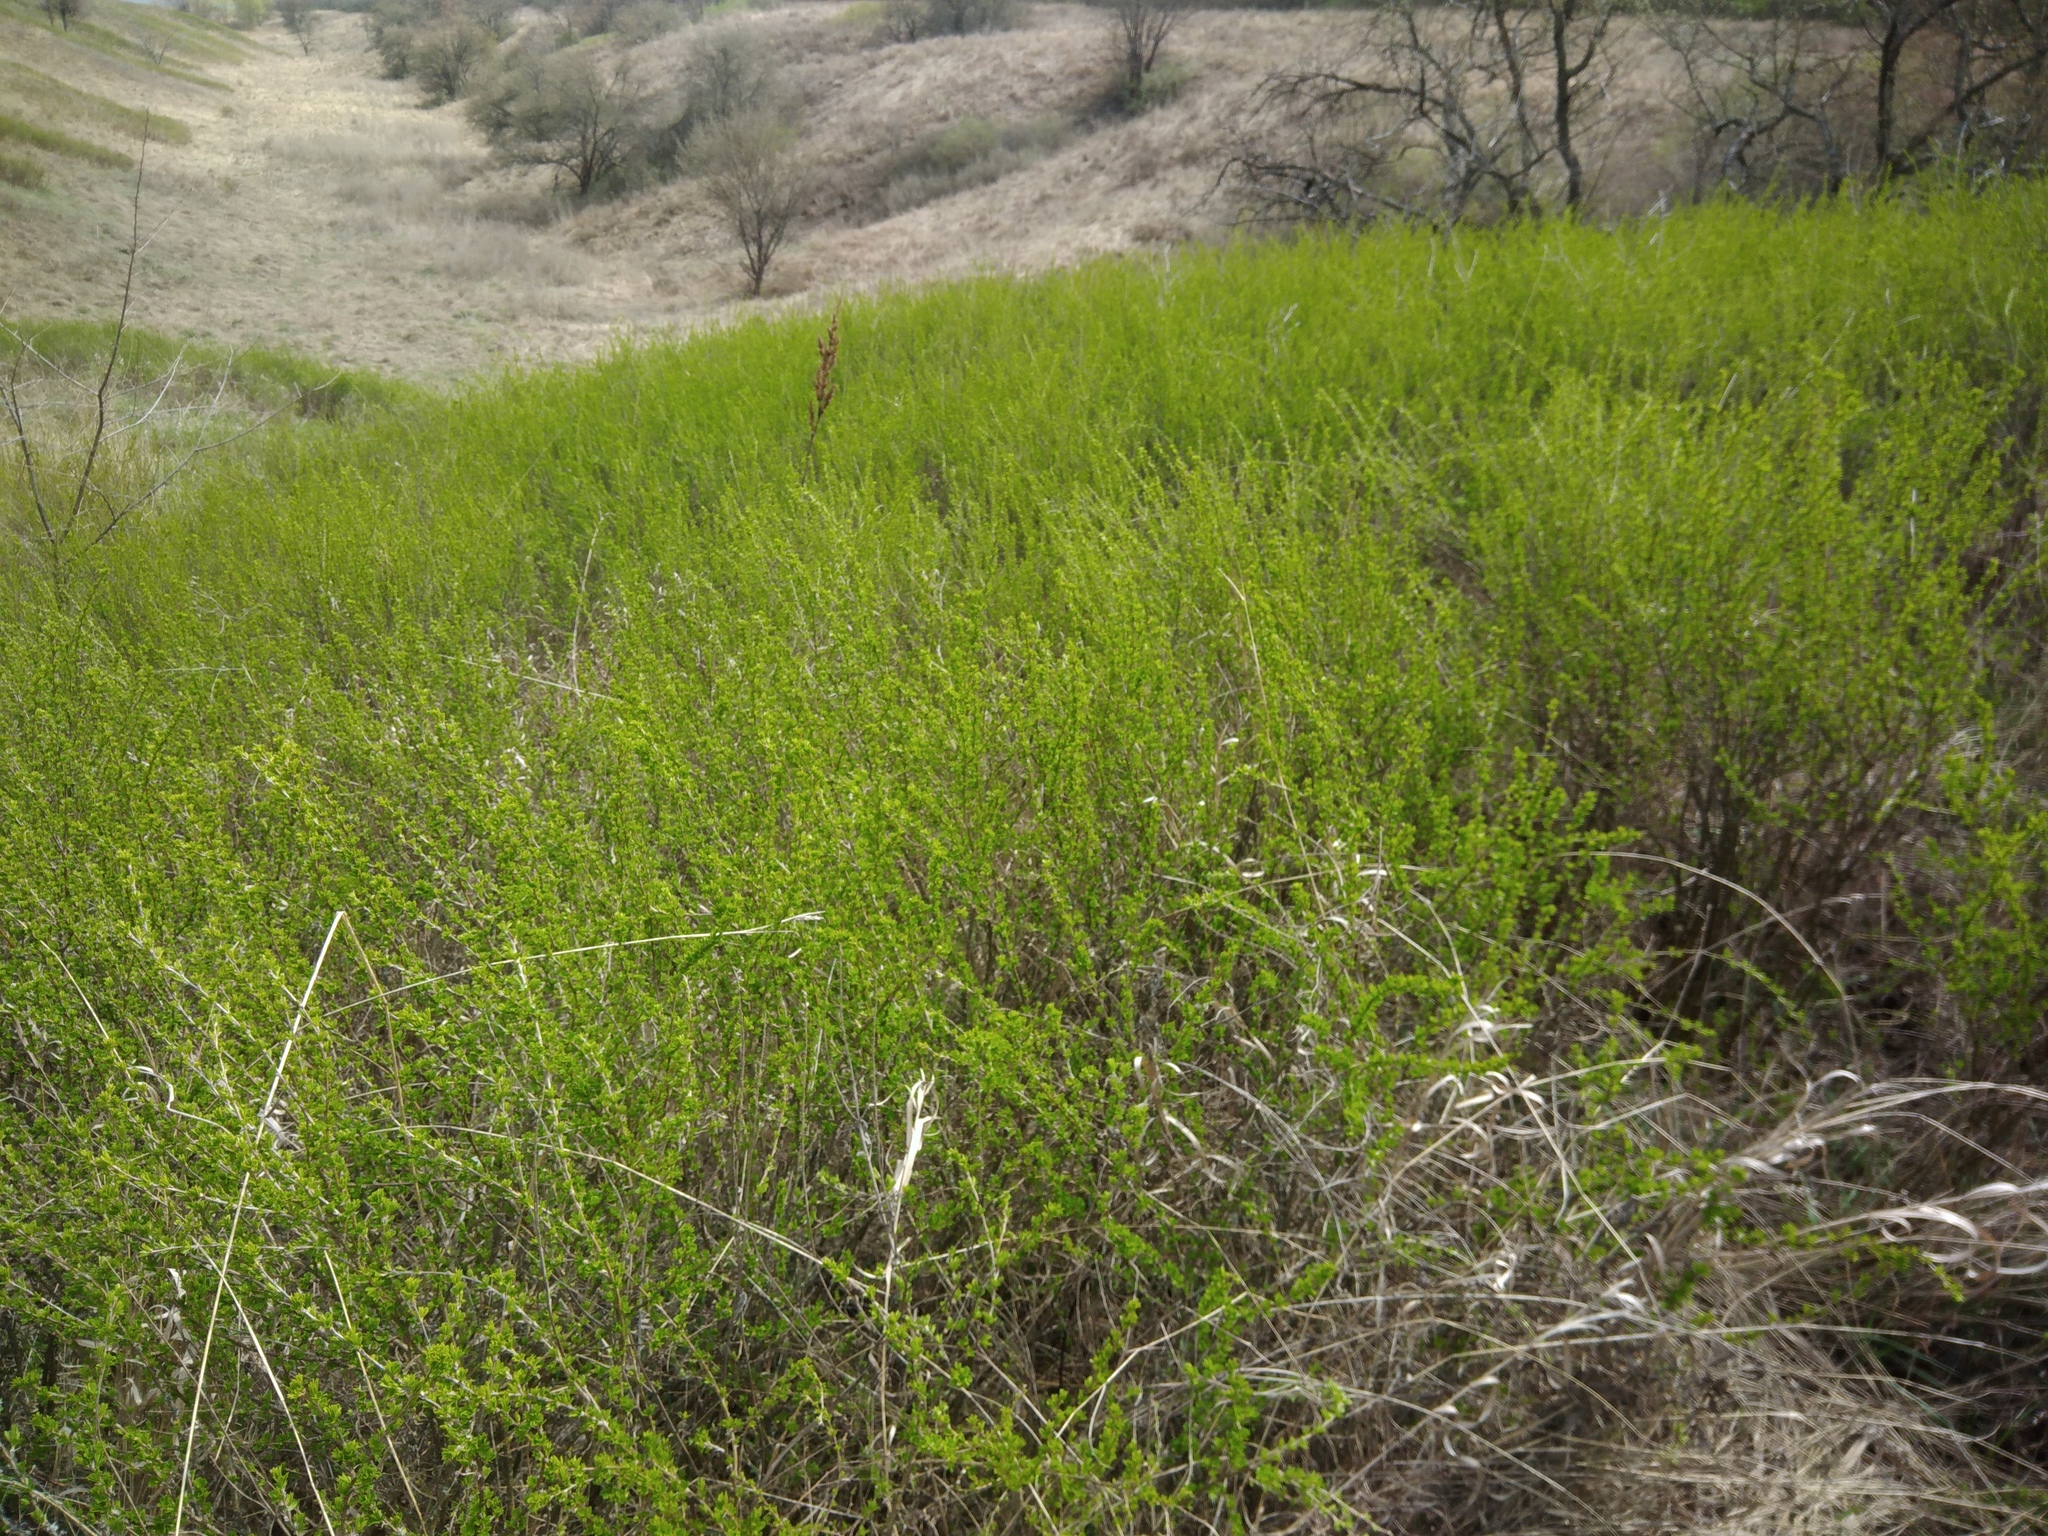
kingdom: Plantae
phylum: Tracheophyta
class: Magnoliopsida
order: Fabales
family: Fabaceae
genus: Caragana
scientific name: Caragana frutex
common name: Russian peashrub
